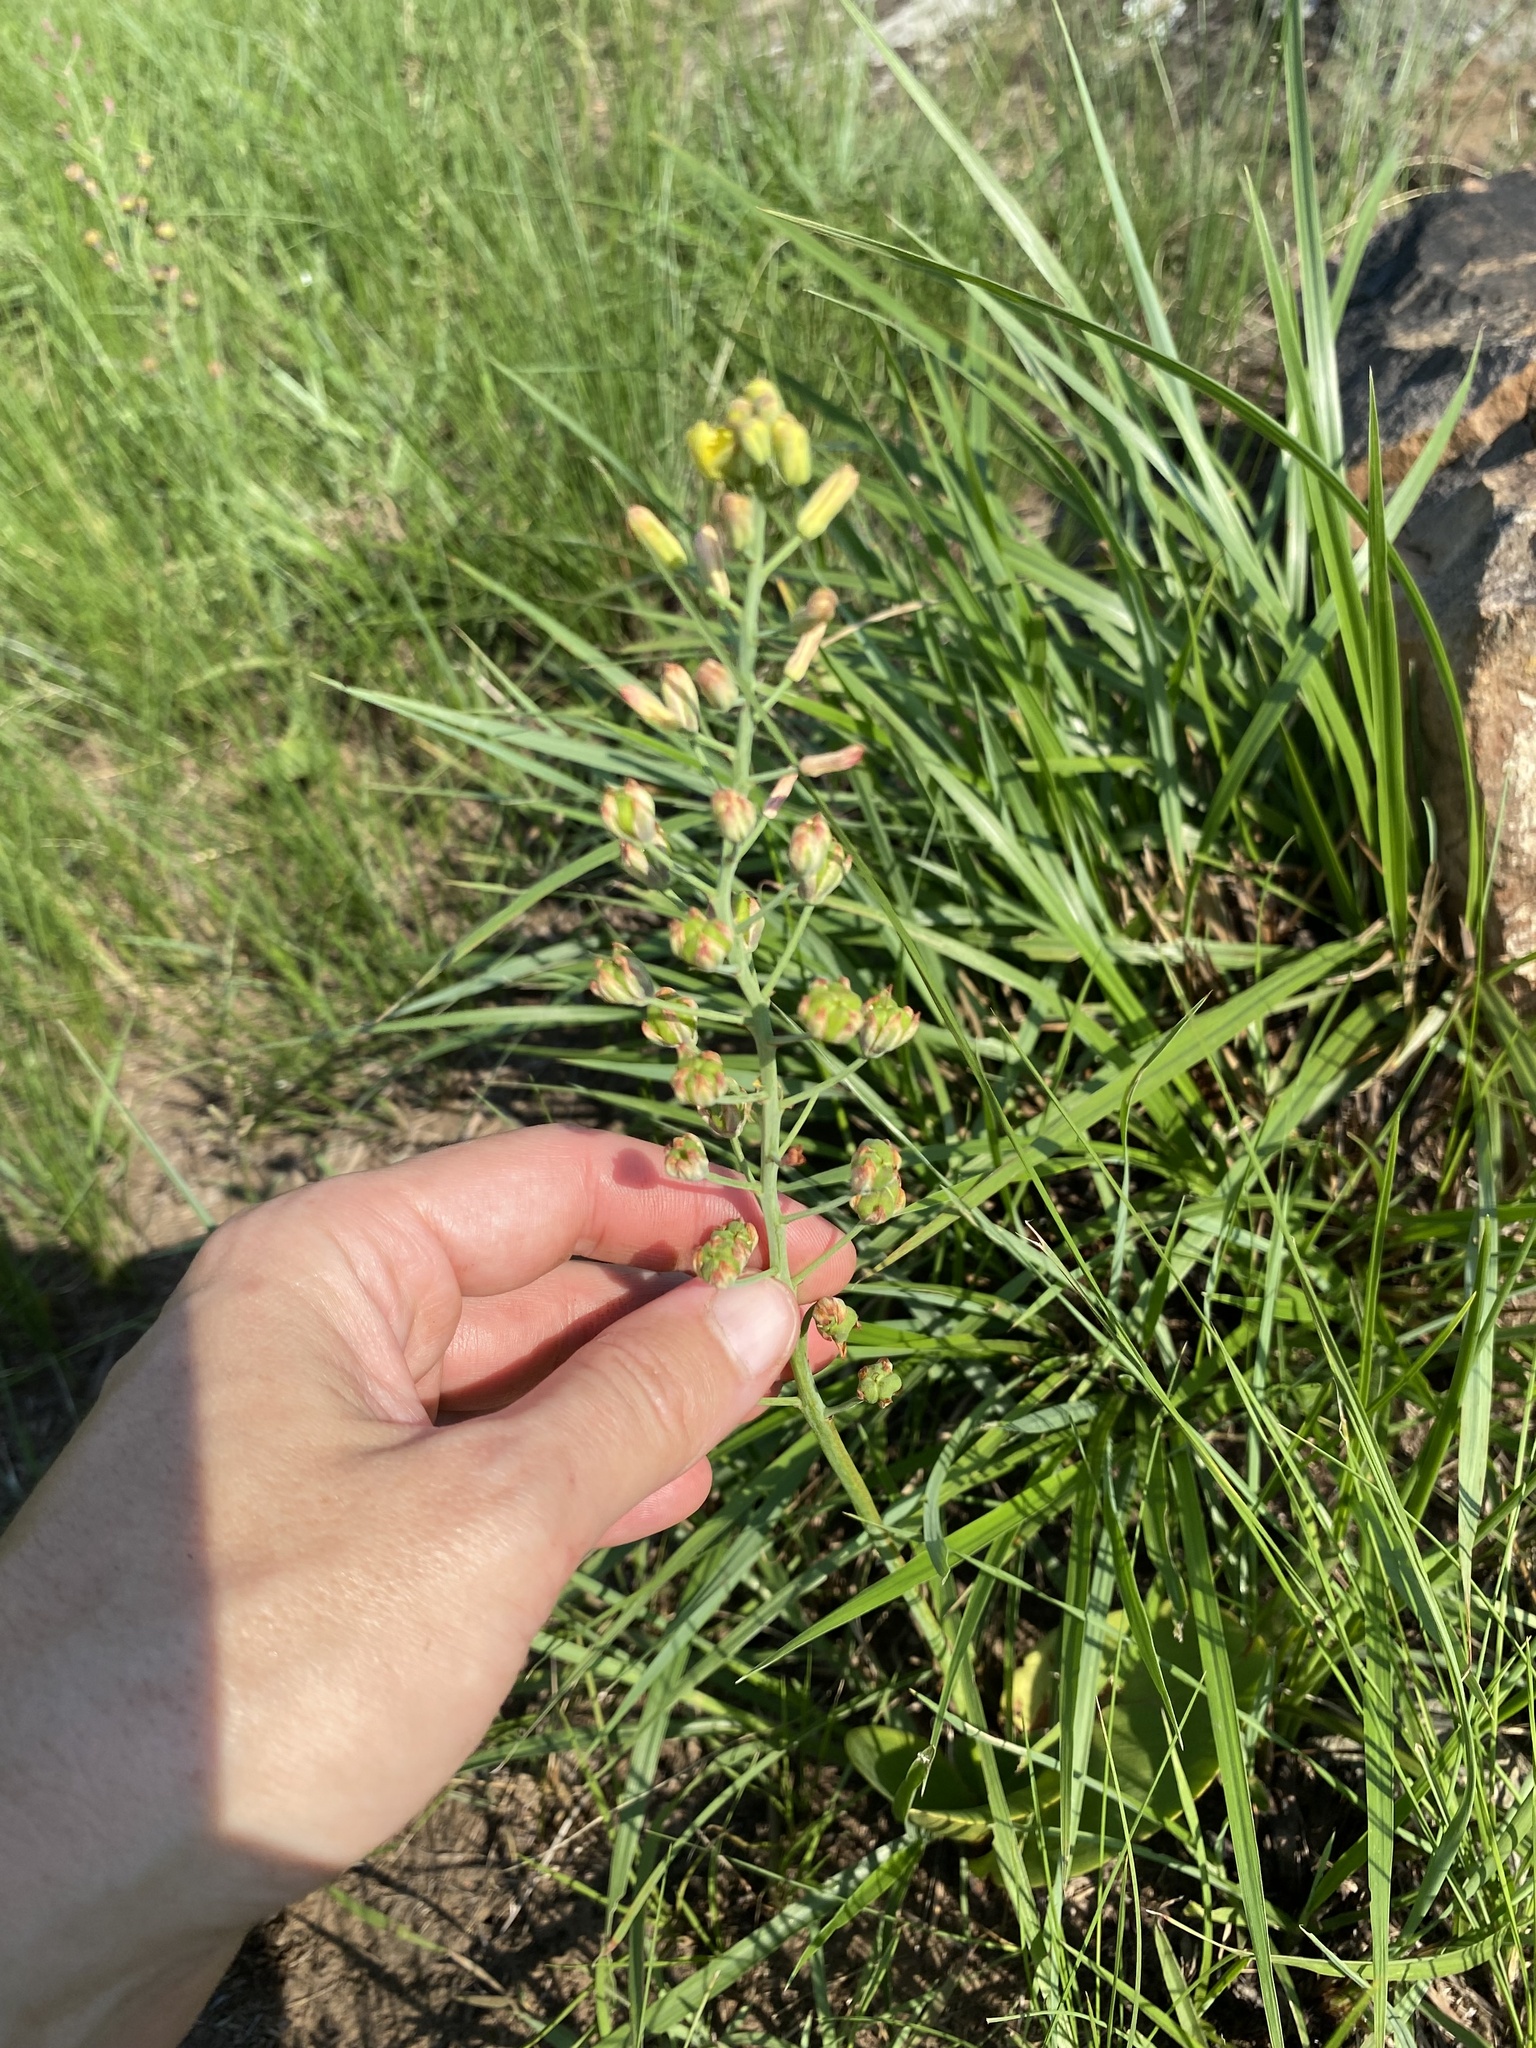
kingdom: Plantae
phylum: Tracheophyta
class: Liliopsida
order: Asparagales
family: Asparagaceae
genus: Eriospermum
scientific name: Eriospermum mackenii
